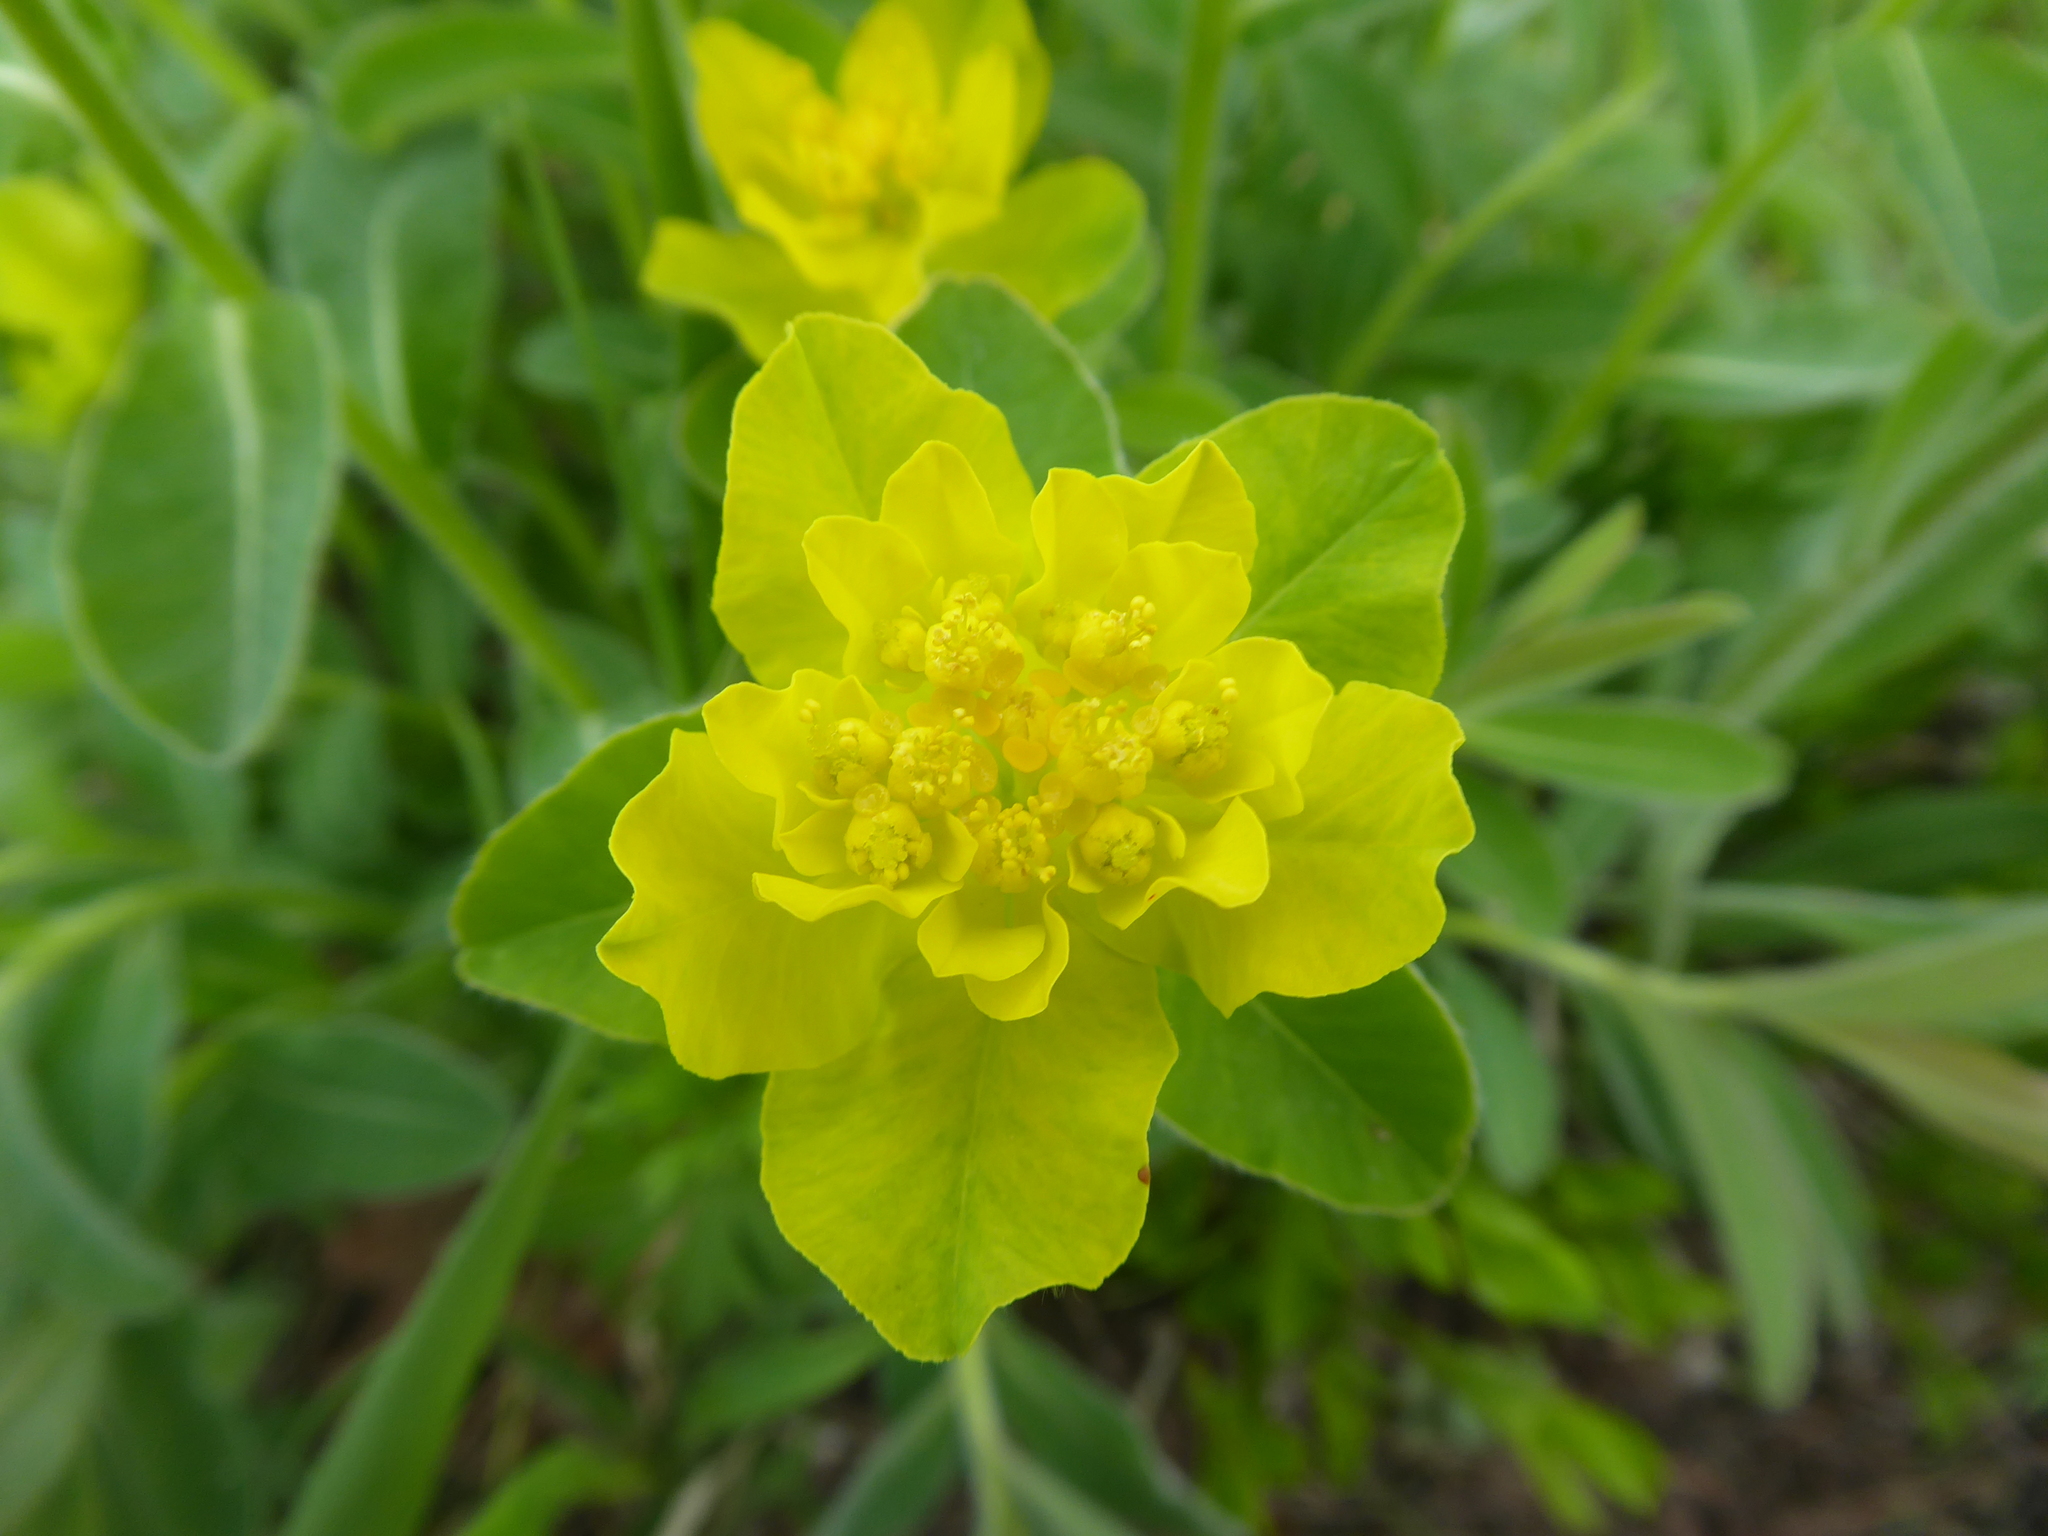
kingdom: Plantae
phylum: Tracheophyta
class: Magnoliopsida
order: Malpighiales
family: Euphorbiaceae
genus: Euphorbia
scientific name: Euphorbia epithymoides
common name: Cushion spurge
